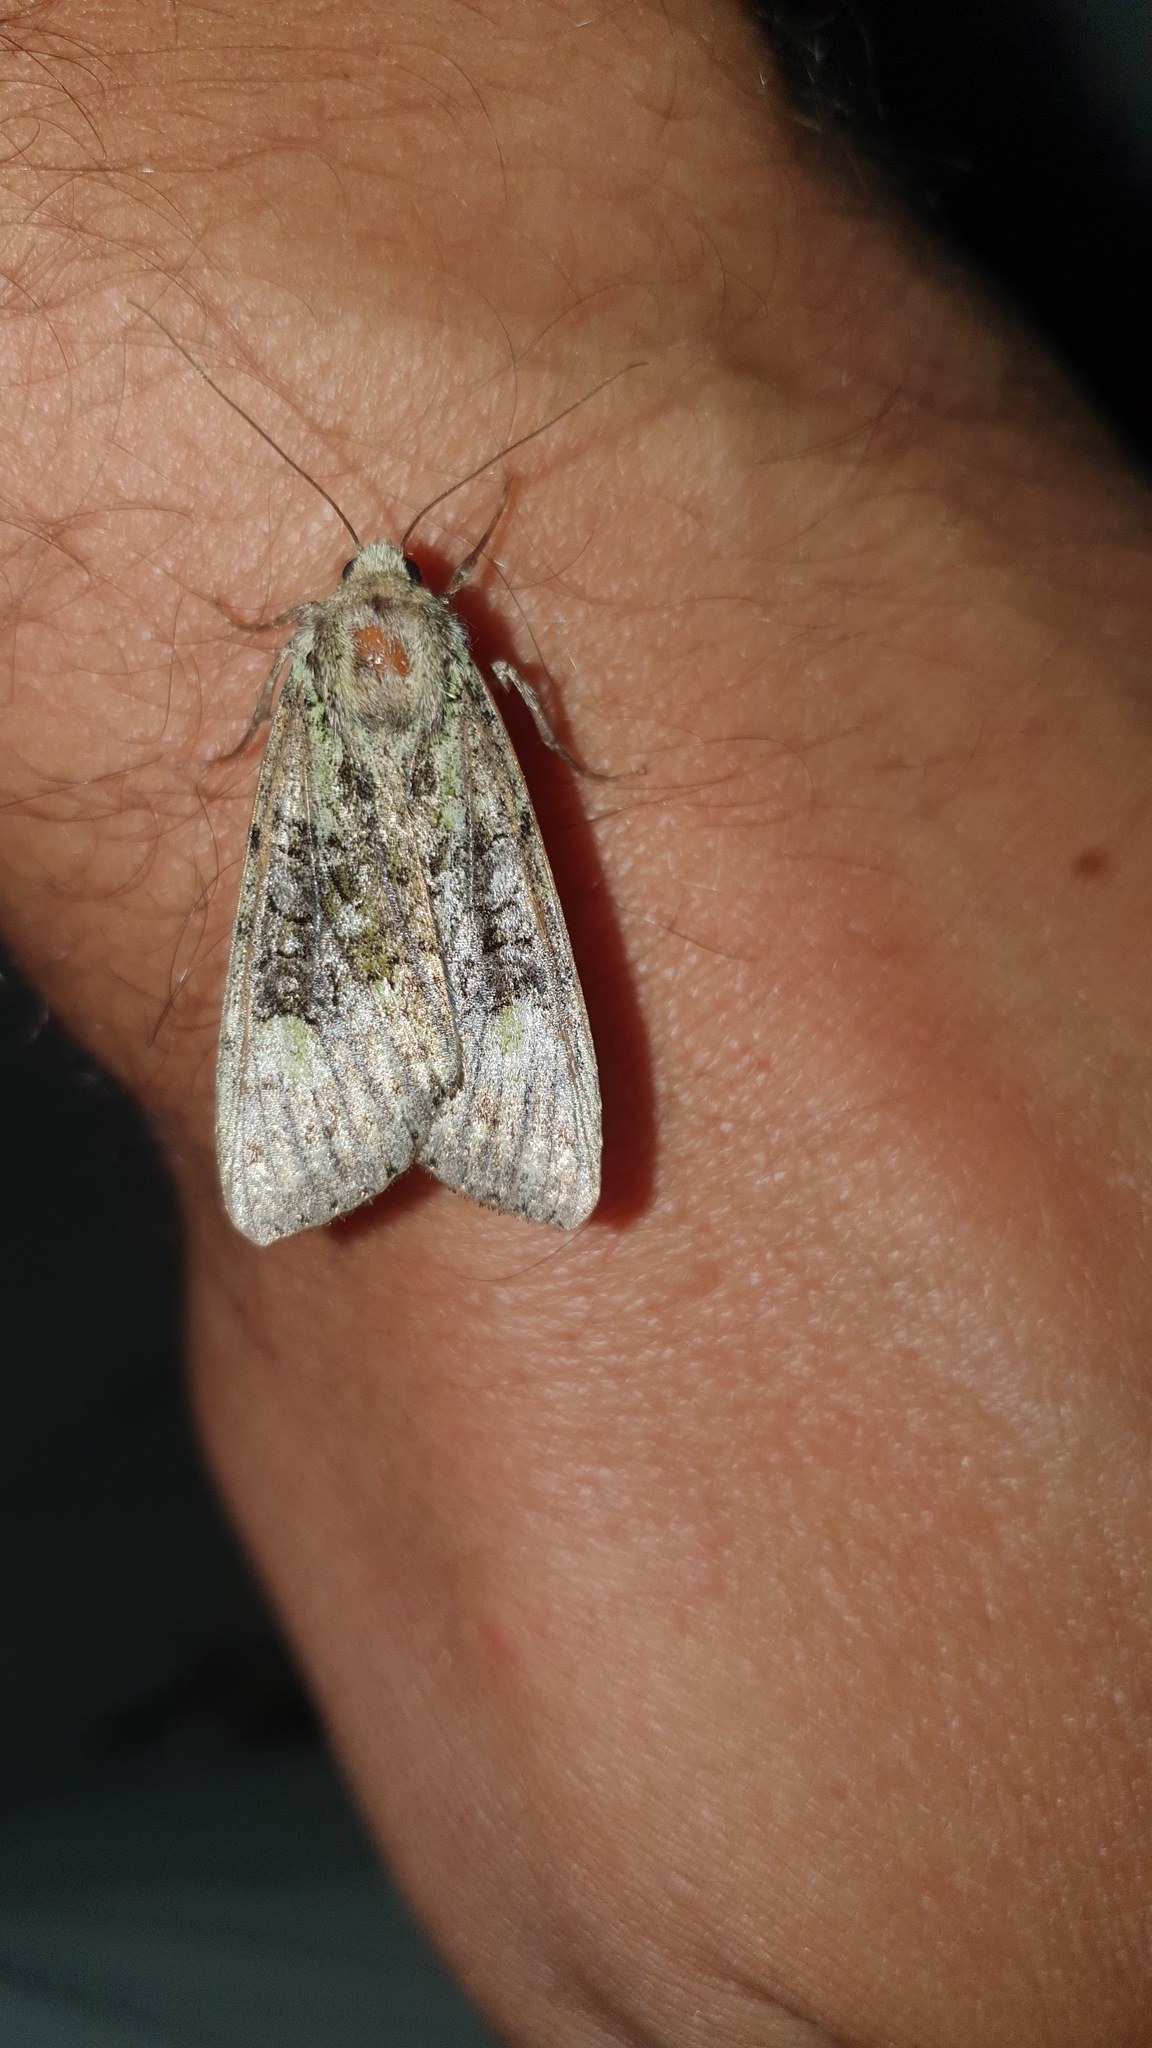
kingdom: Animalia
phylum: Arthropoda
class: Insecta
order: Lepidoptera
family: Noctuidae
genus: Anaplectoides
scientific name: Anaplectoides prasina
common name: Green arches
